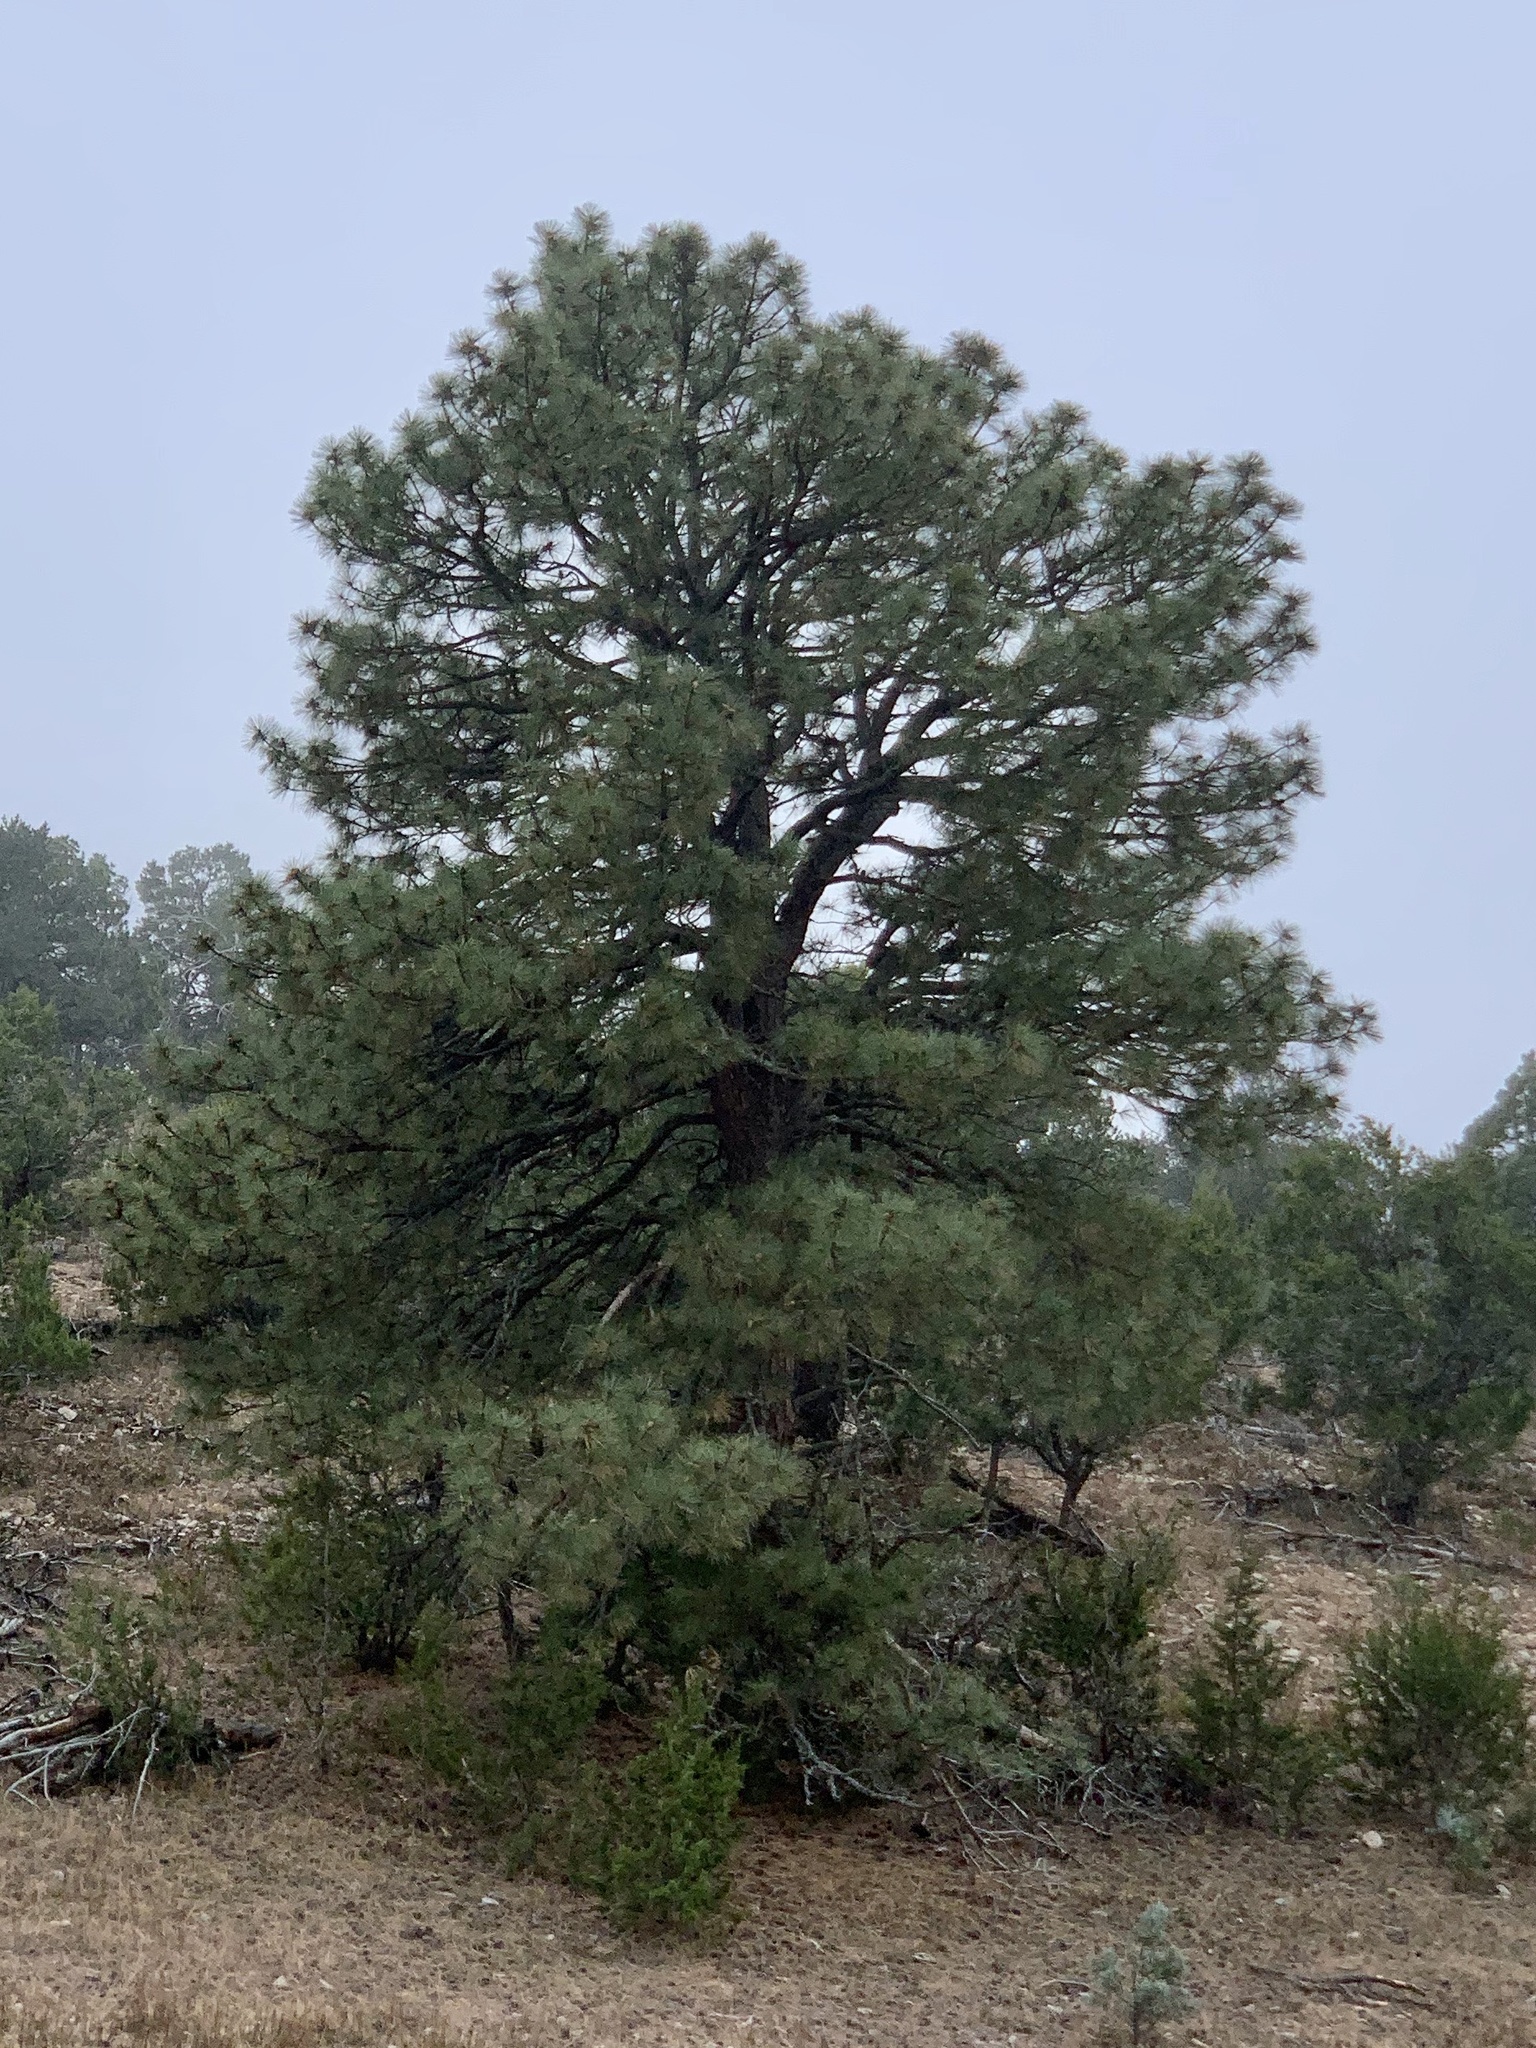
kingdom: Plantae
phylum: Tracheophyta
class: Pinopsida
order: Pinales
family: Pinaceae
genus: Pinus
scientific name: Pinus ponderosa
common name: Western yellow-pine
